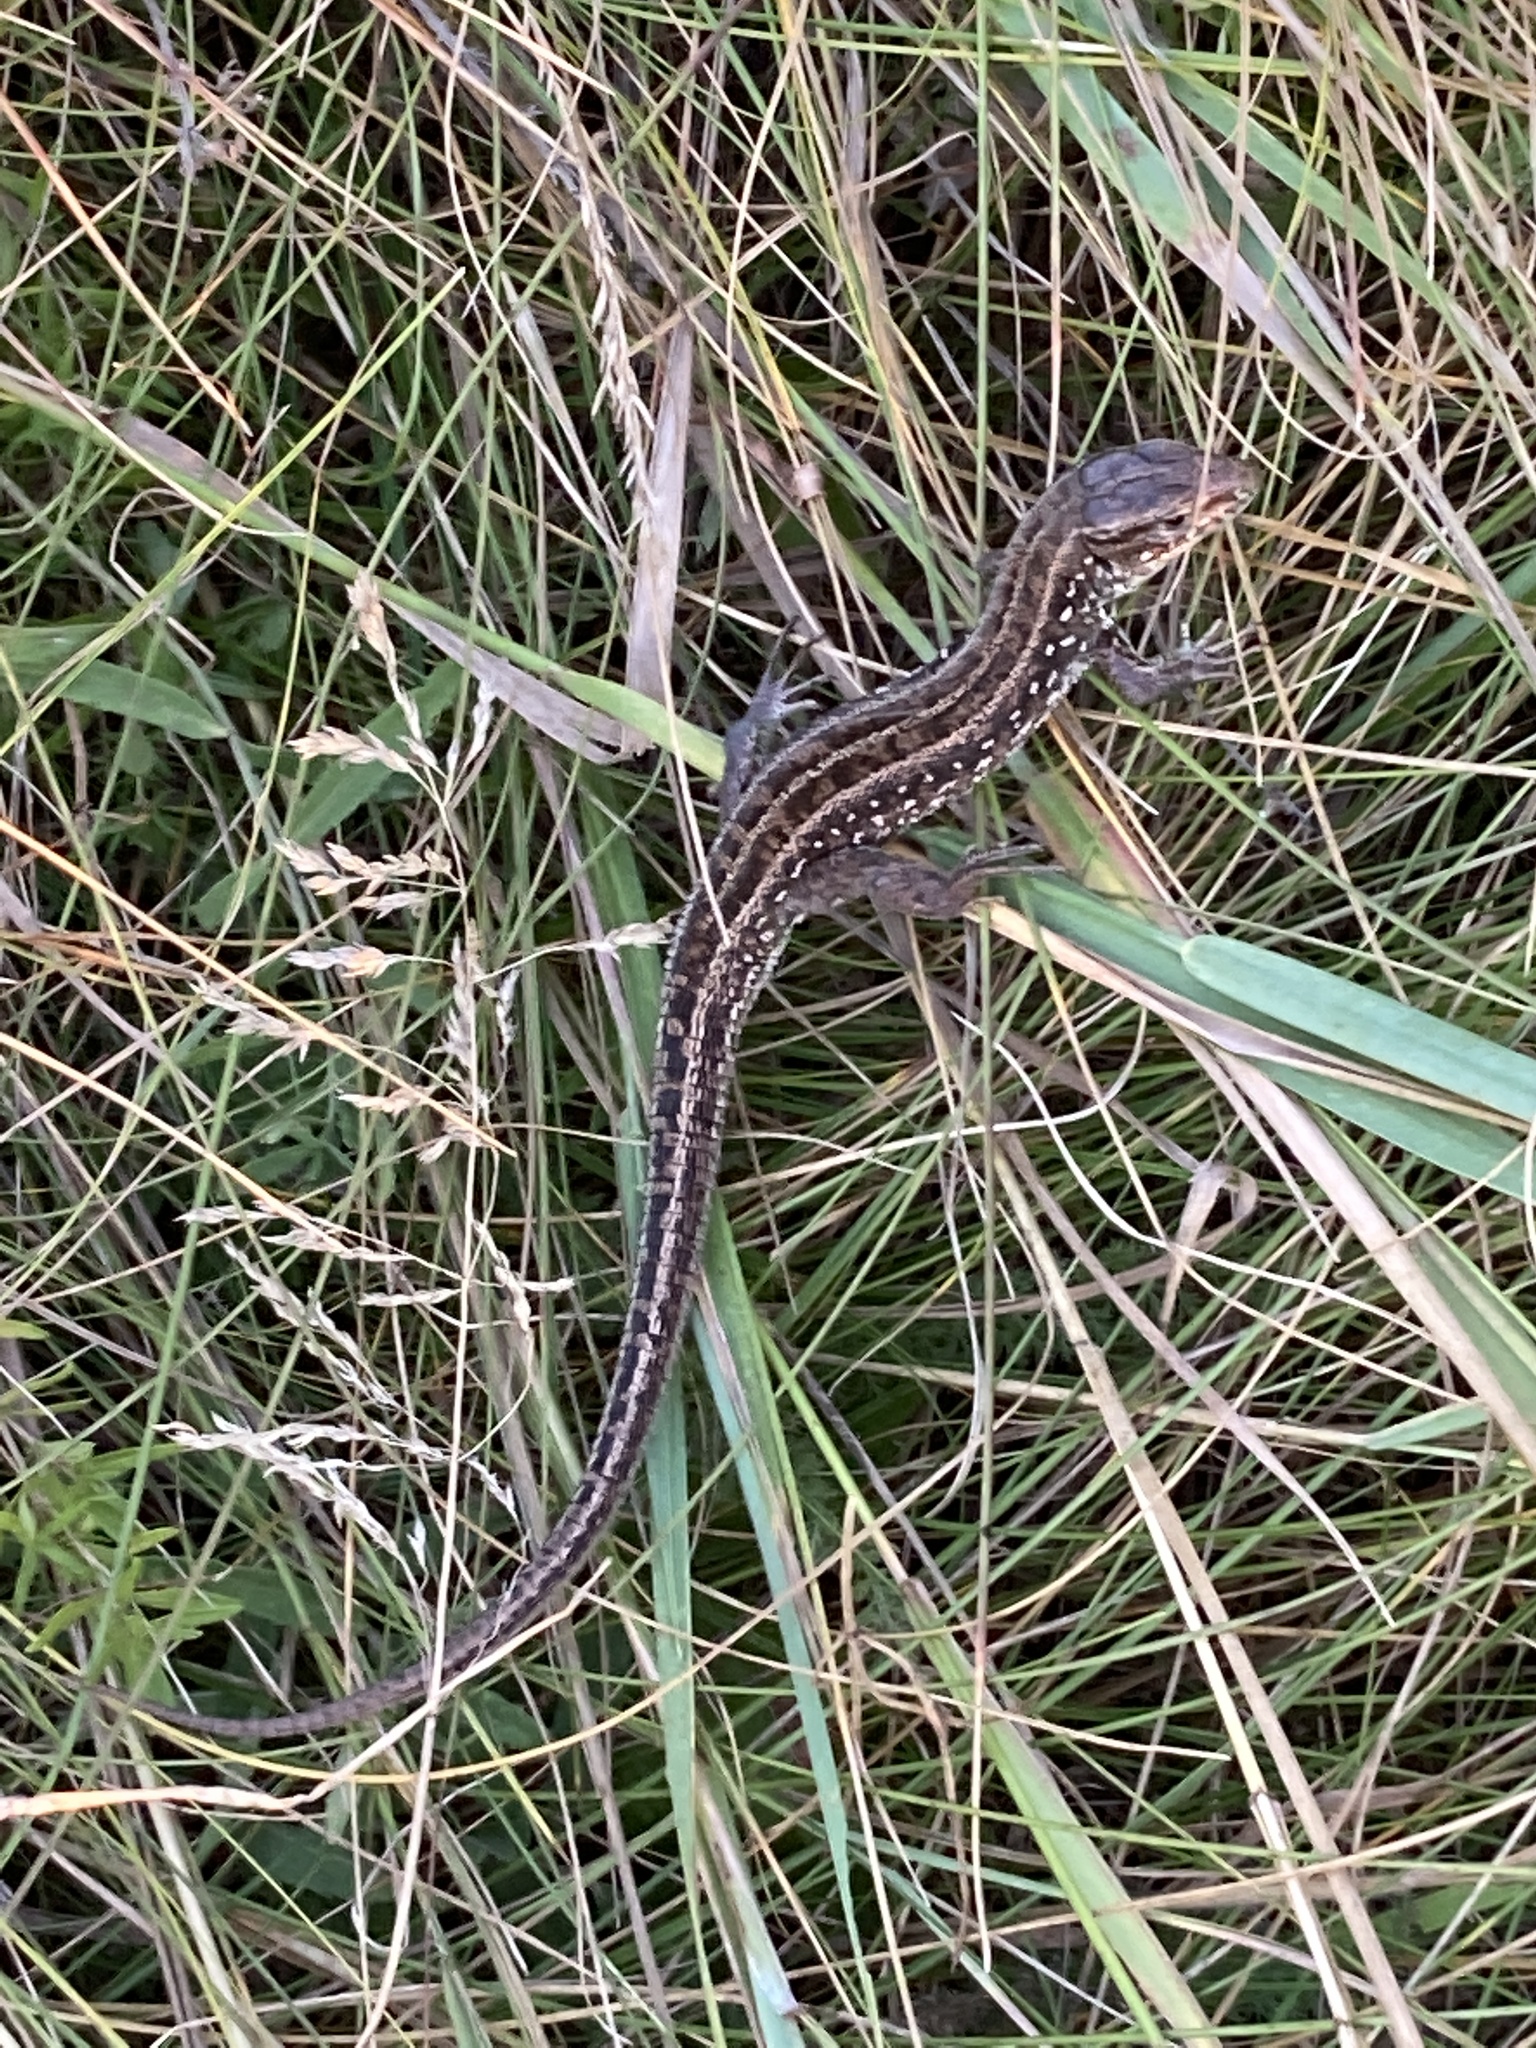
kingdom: Animalia
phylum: Chordata
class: Squamata
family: Lacertidae
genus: Lacerta
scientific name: Lacerta agilis
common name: Sand lizard
